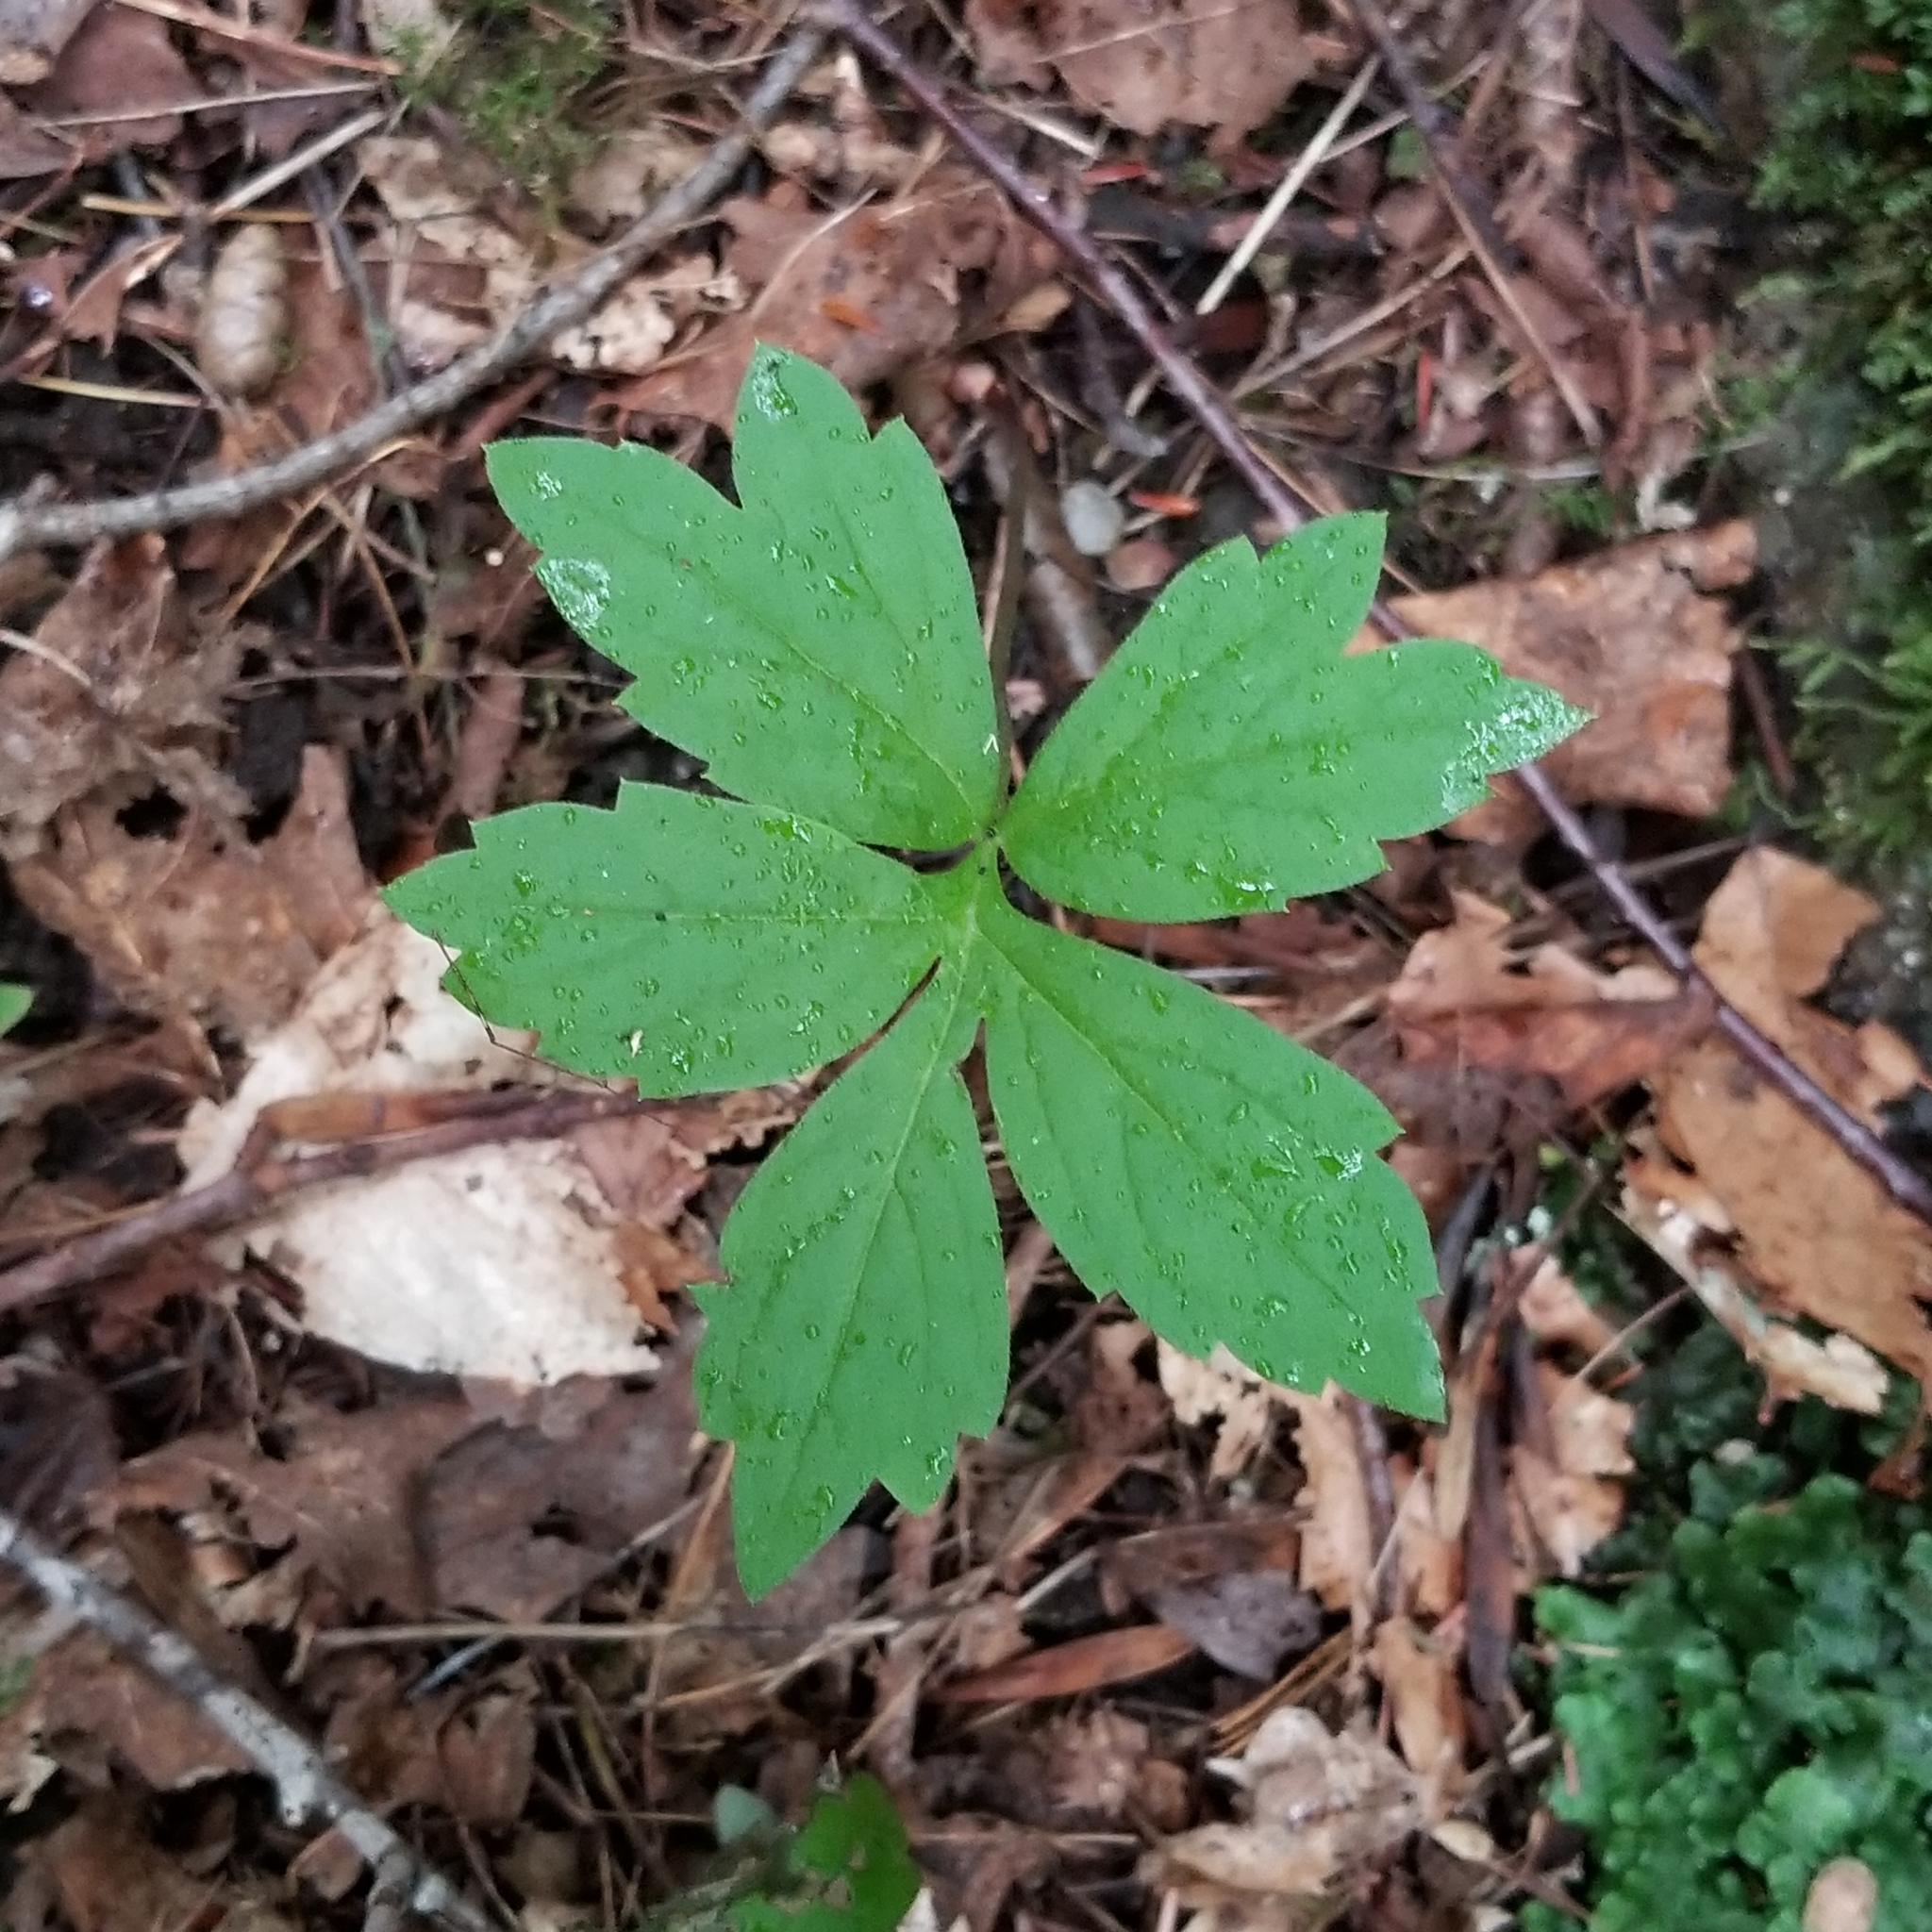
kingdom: Plantae
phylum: Tracheophyta
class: Magnoliopsida
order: Boraginales
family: Hydrophyllaceae
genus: Hydrophyllum
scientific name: Hydrophyllum virginianum
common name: Virginia waterleaf
